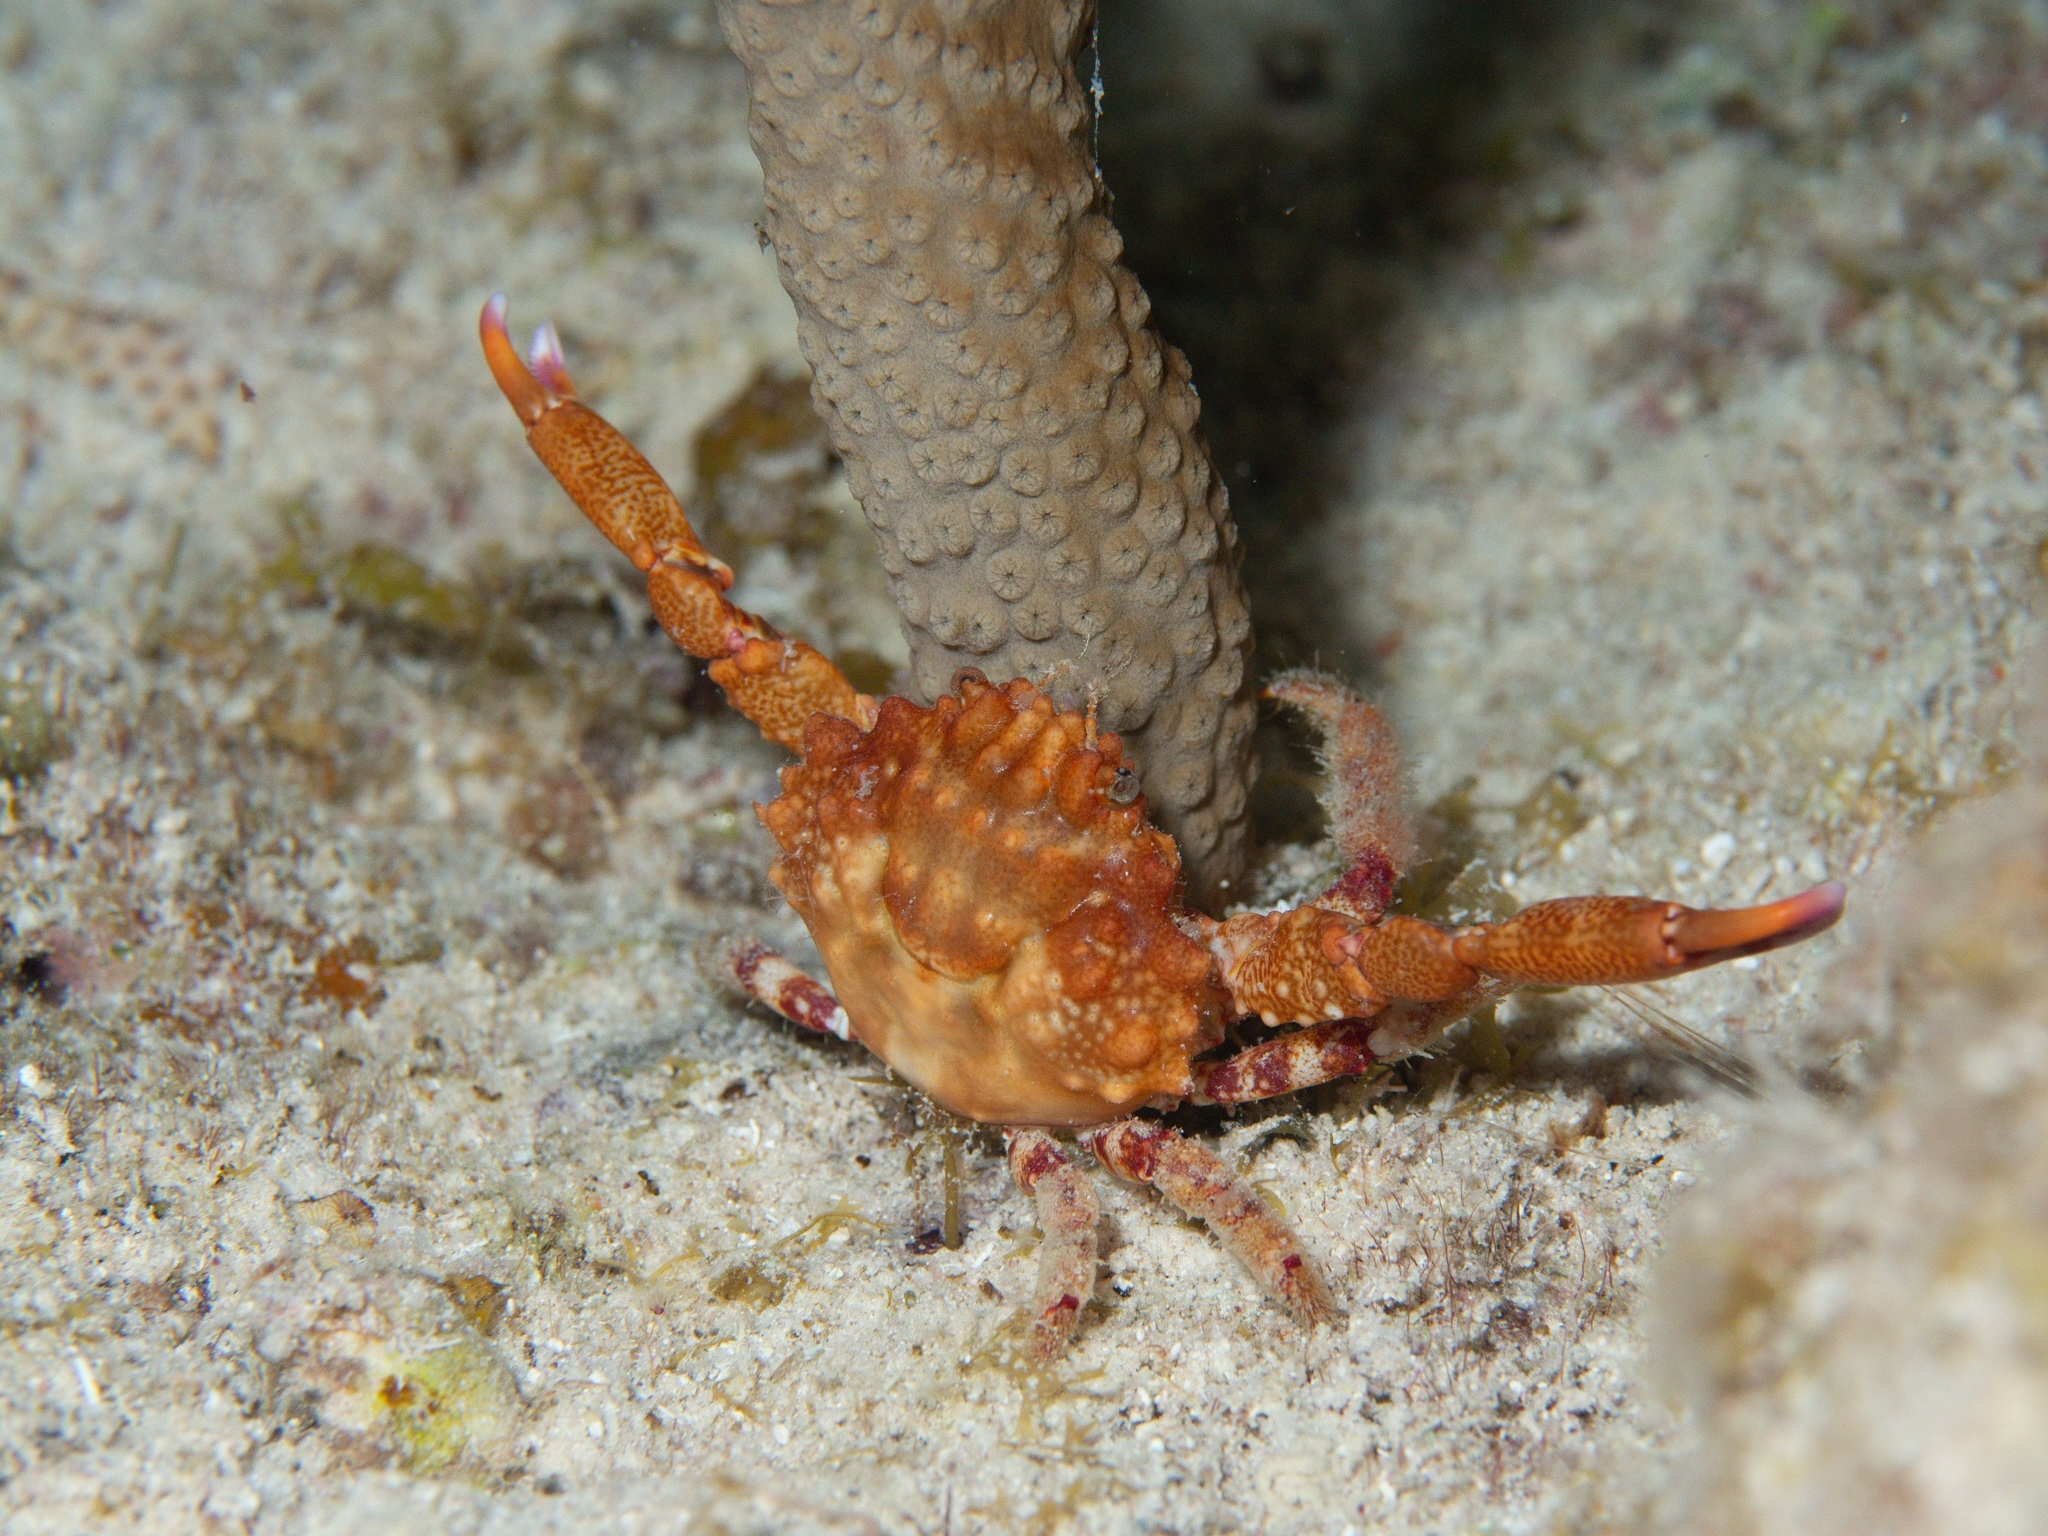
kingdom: Animalia
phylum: Arthropoda
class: Malacostraca
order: Decapoda
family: Mithracidae
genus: Mithraculus
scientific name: Mithraculus forceps
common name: Red-ridged clinging crab
